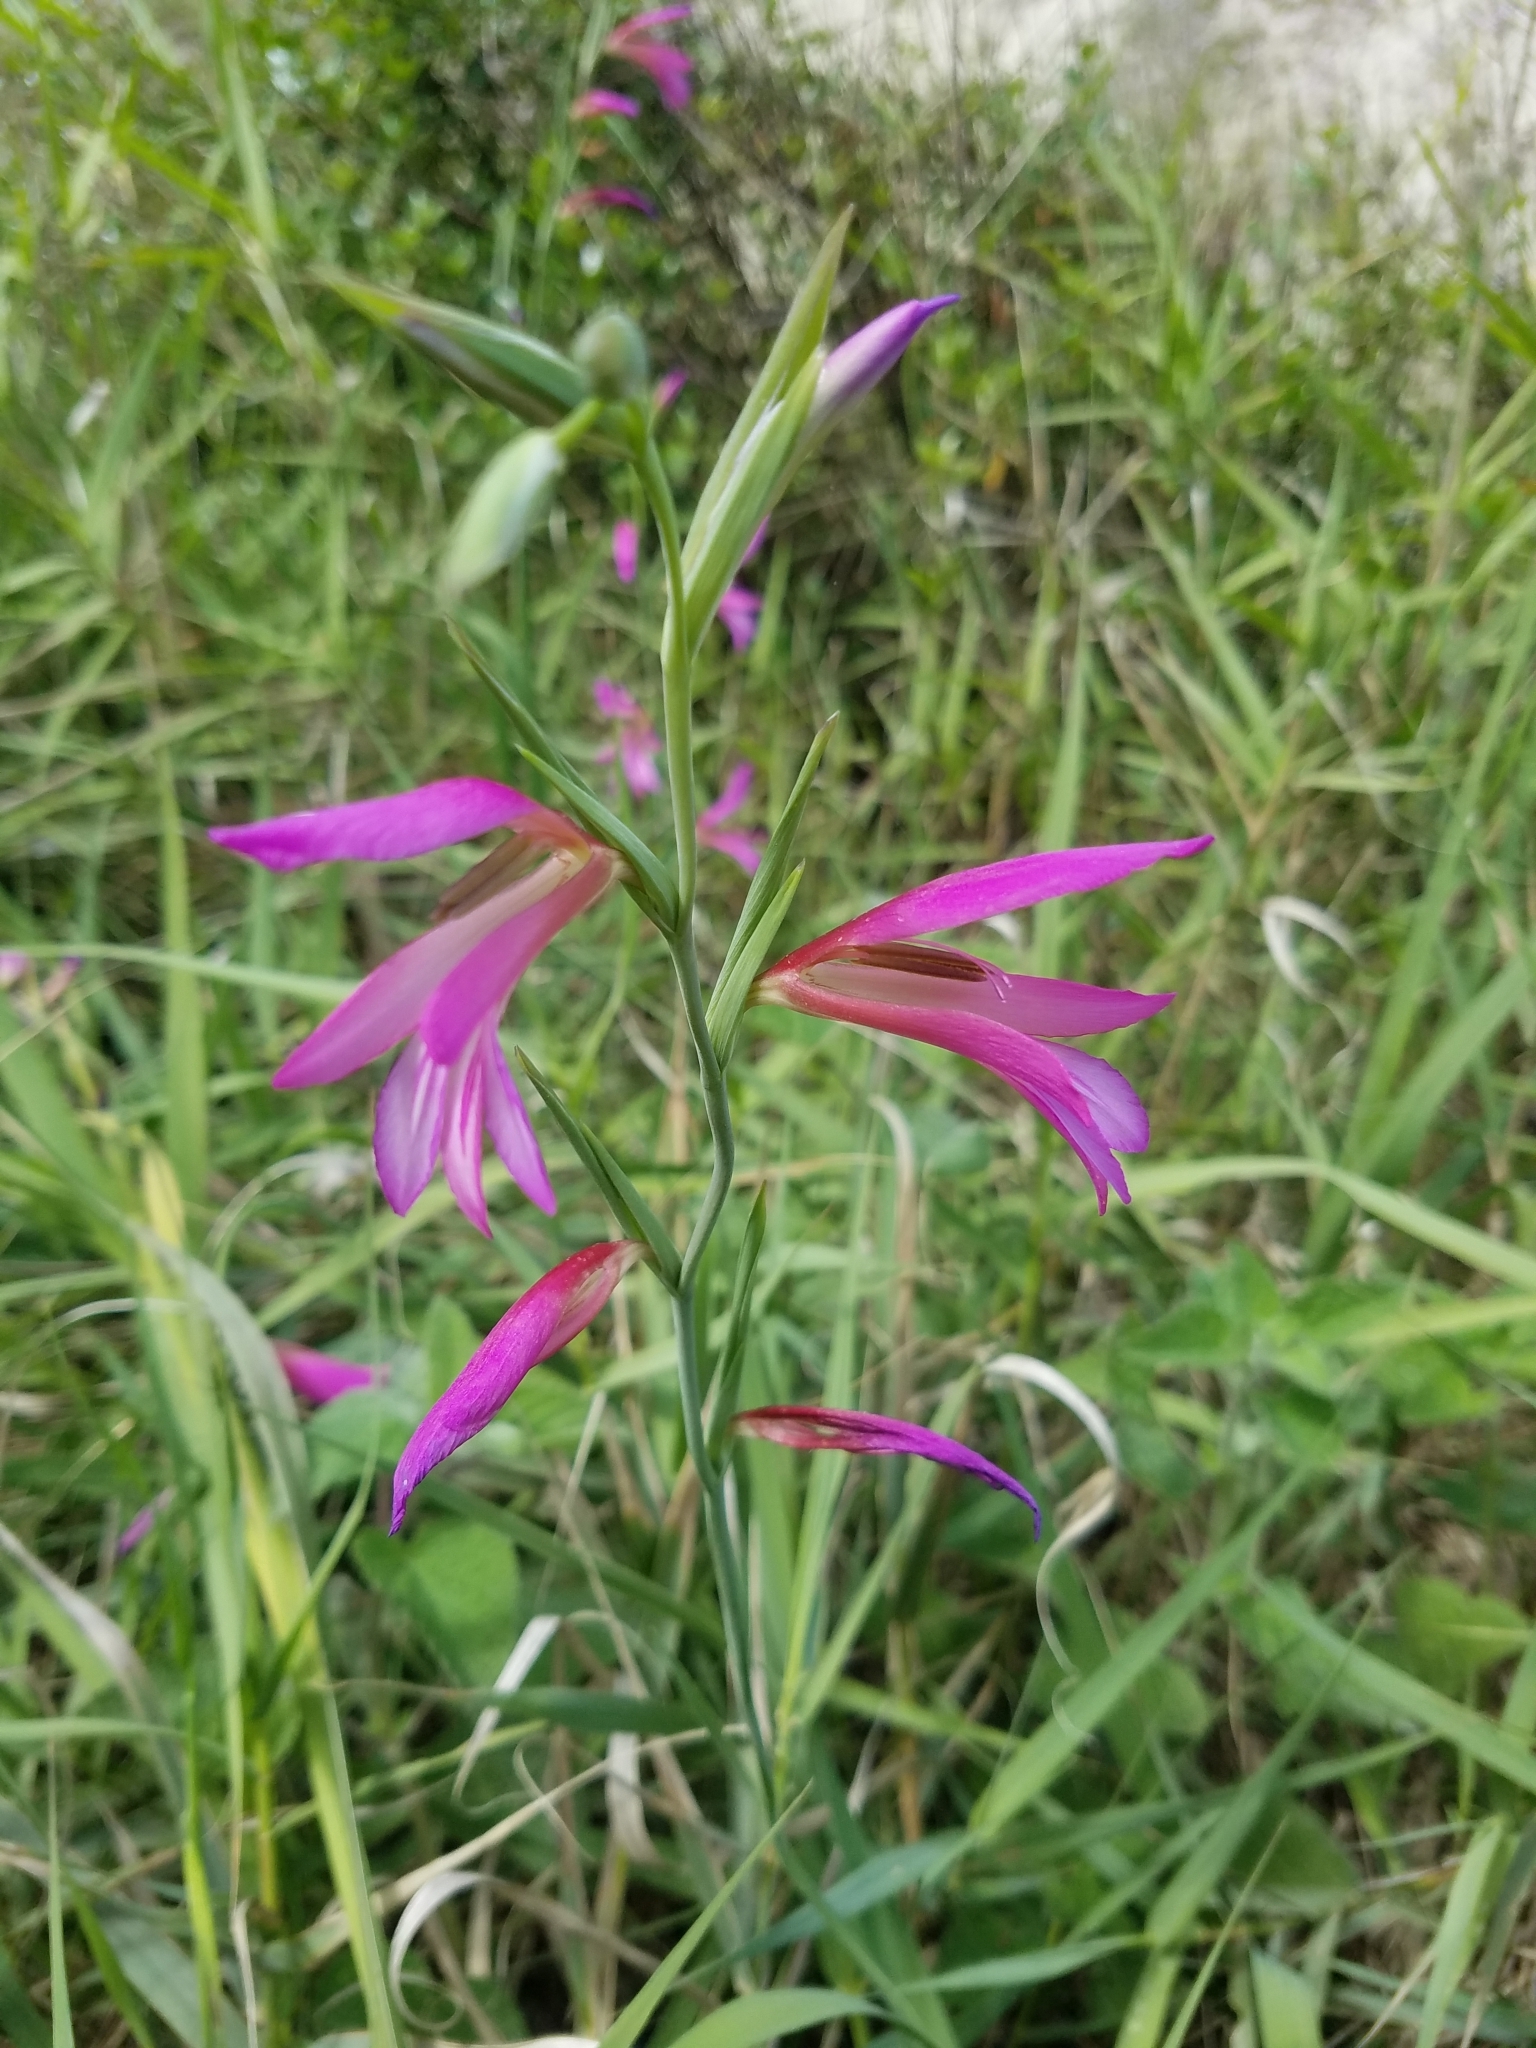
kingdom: Plantae
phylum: Tracheophyta
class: Liliopsida
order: Asparagales
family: Iridaceae
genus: Gladiolus
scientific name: Gladiolus italicus
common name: Field gladiolus
